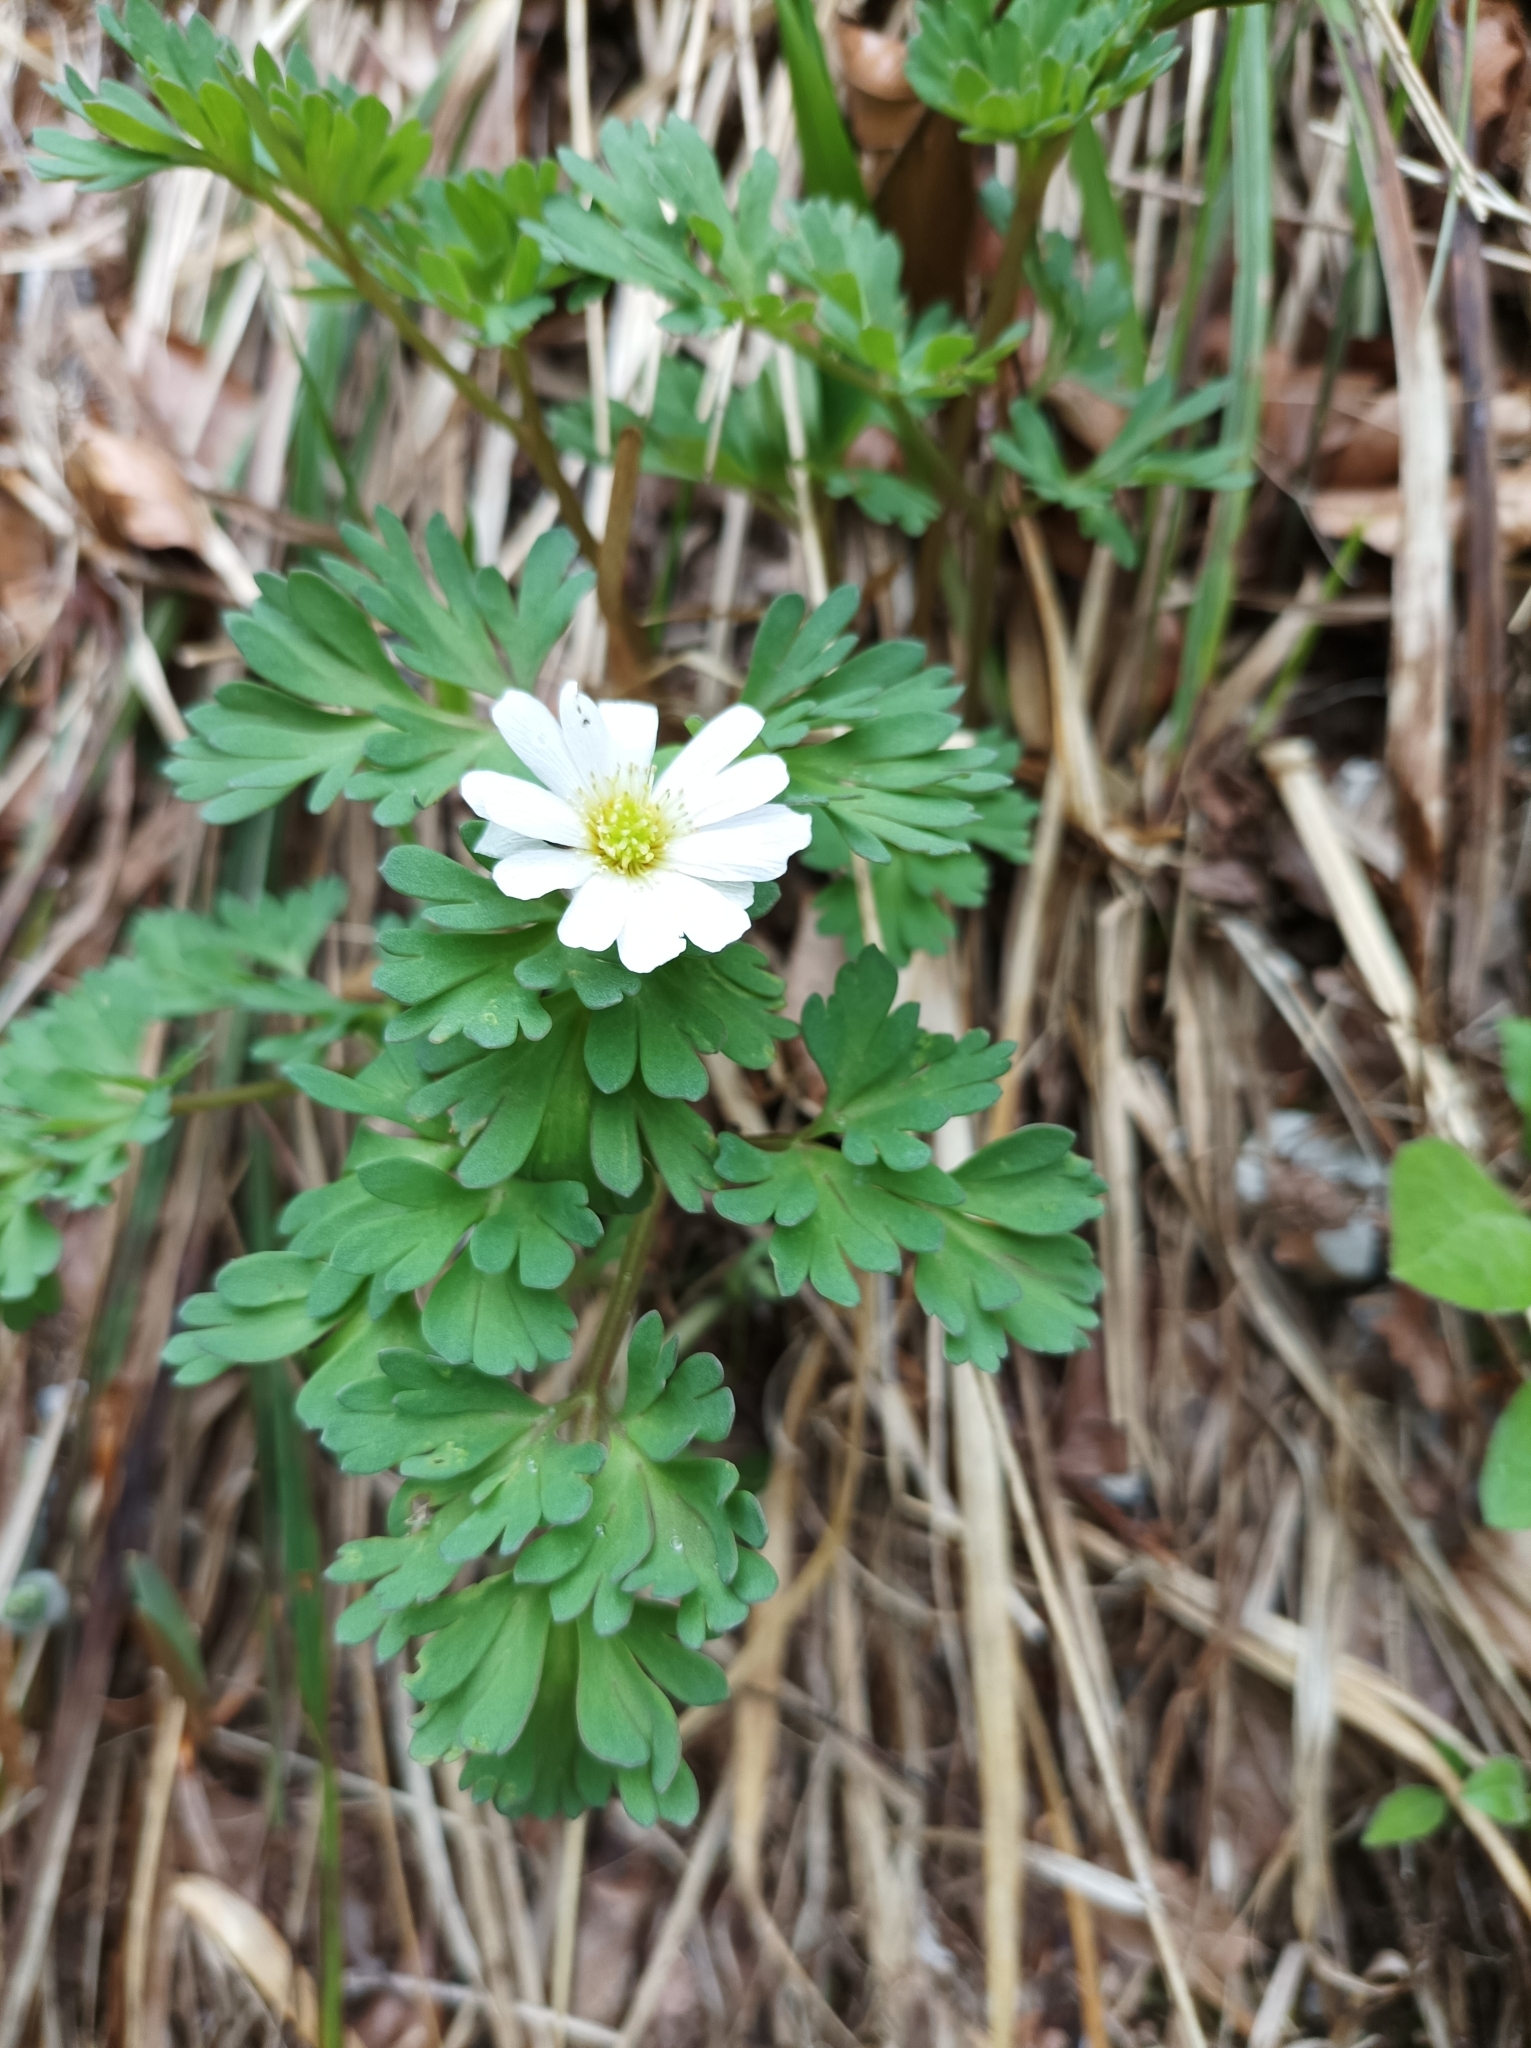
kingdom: Plantae
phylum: Tracheophyta
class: Magnoliopsida
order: Ranunculales
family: Ranunculaceae
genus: Callianthemum
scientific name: Callianthemum anemonoides
